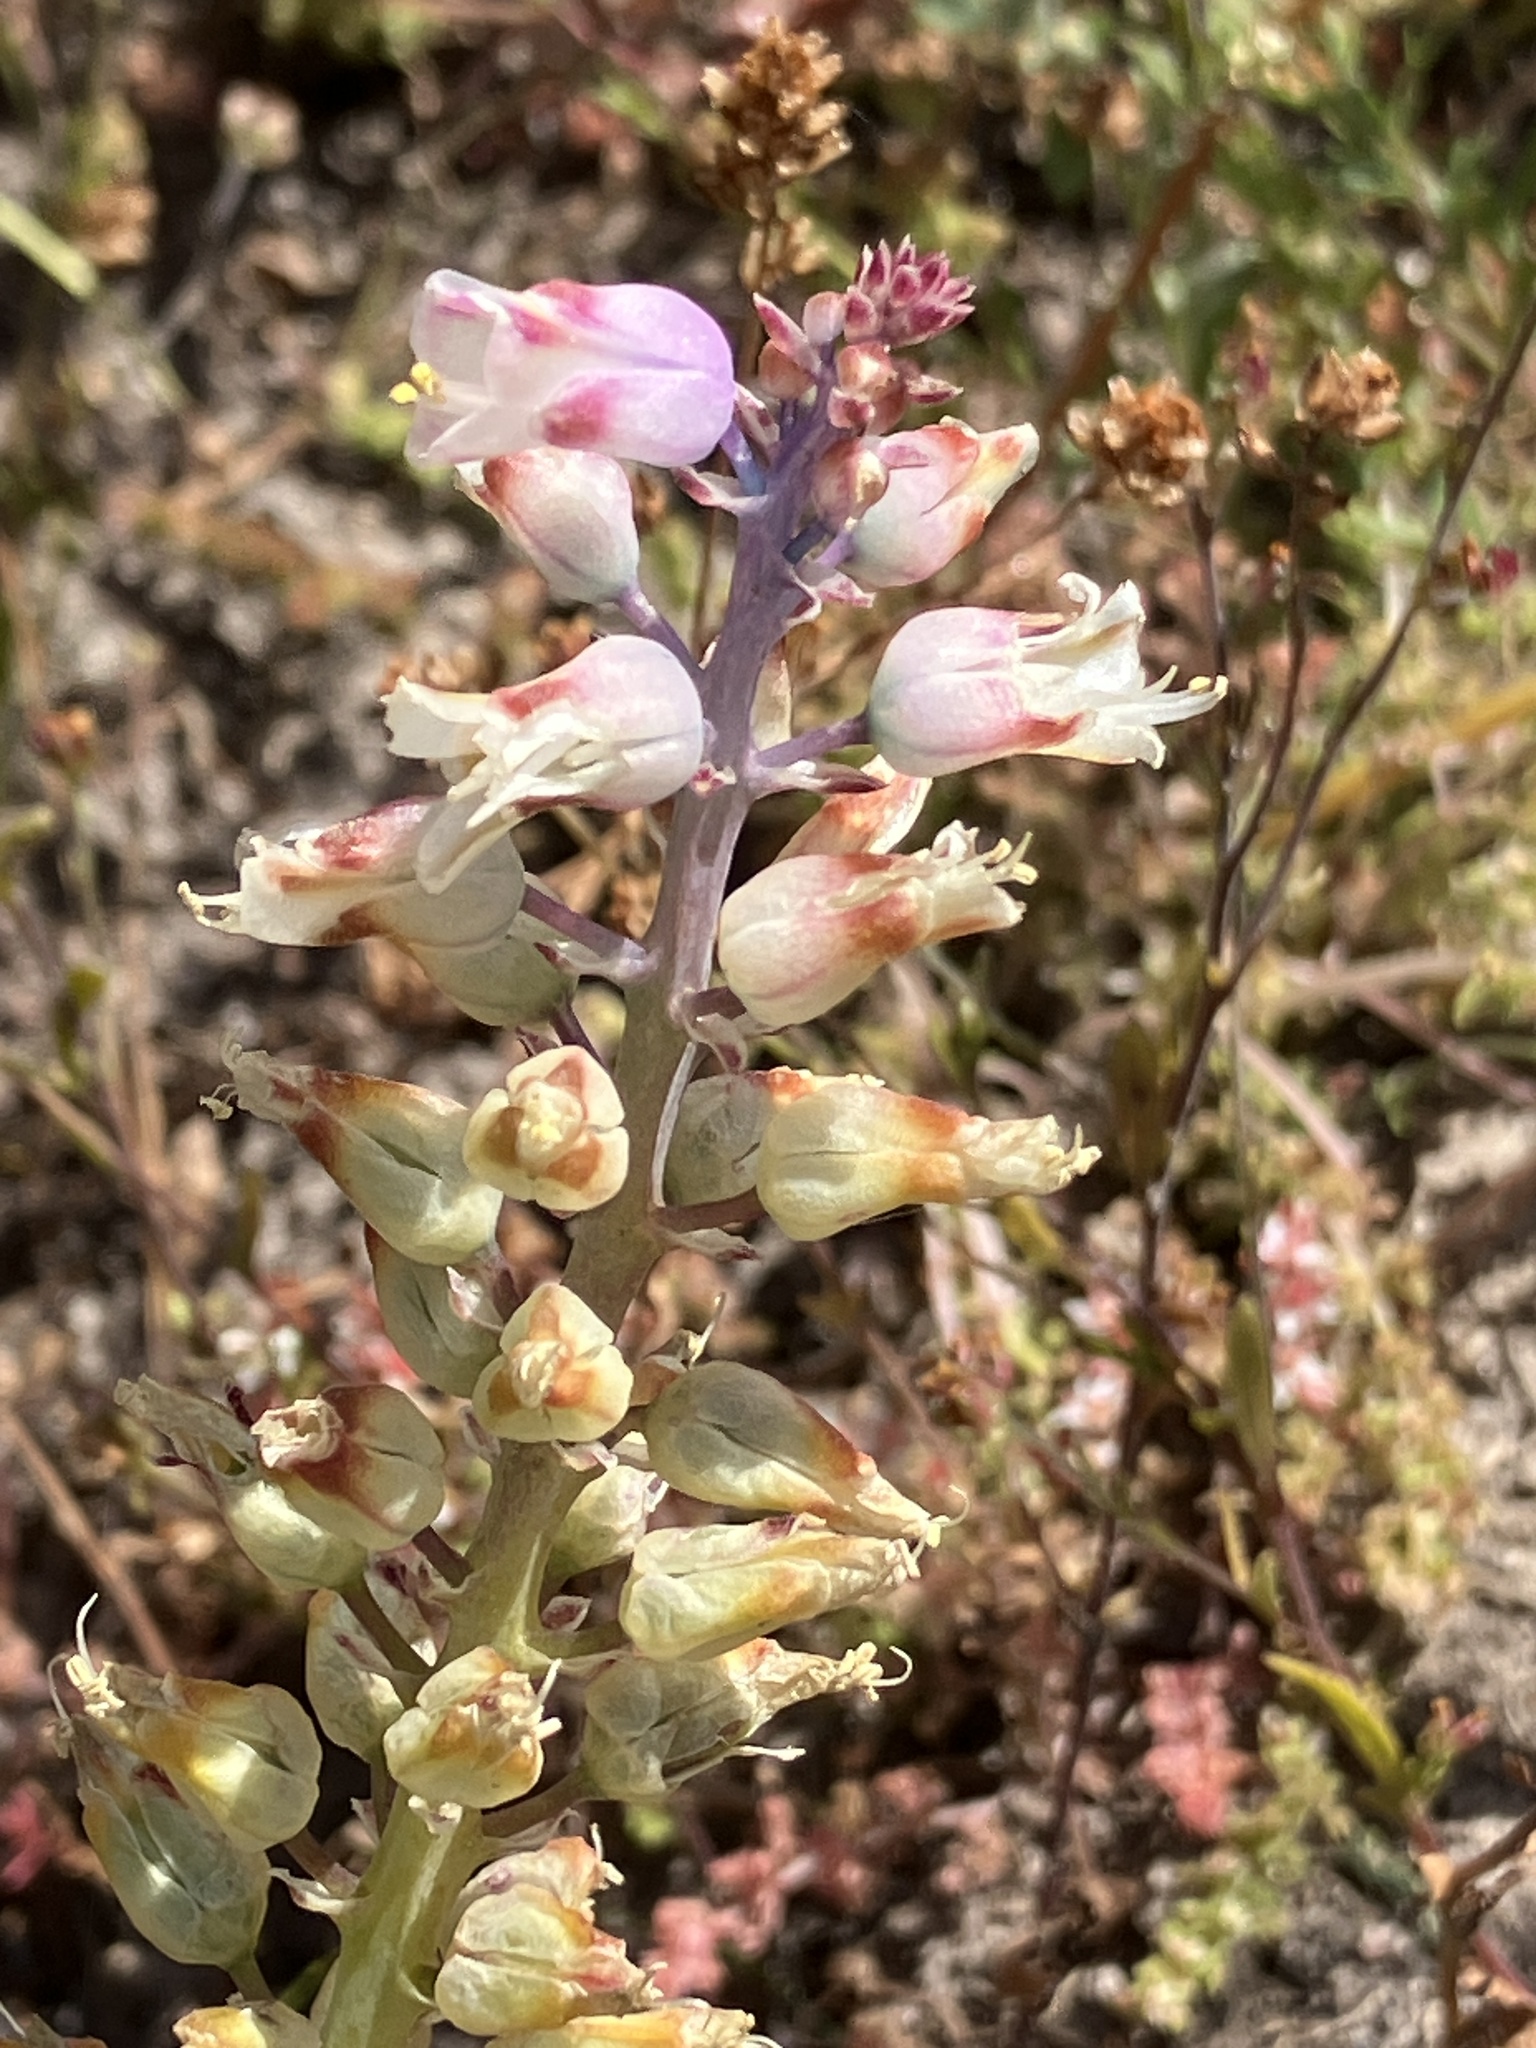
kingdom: Plantae
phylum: Tracheophyta
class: Liliopsida
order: Asparagales
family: Asparagaceae
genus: Lachenalia
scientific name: Lachenalia pallida
